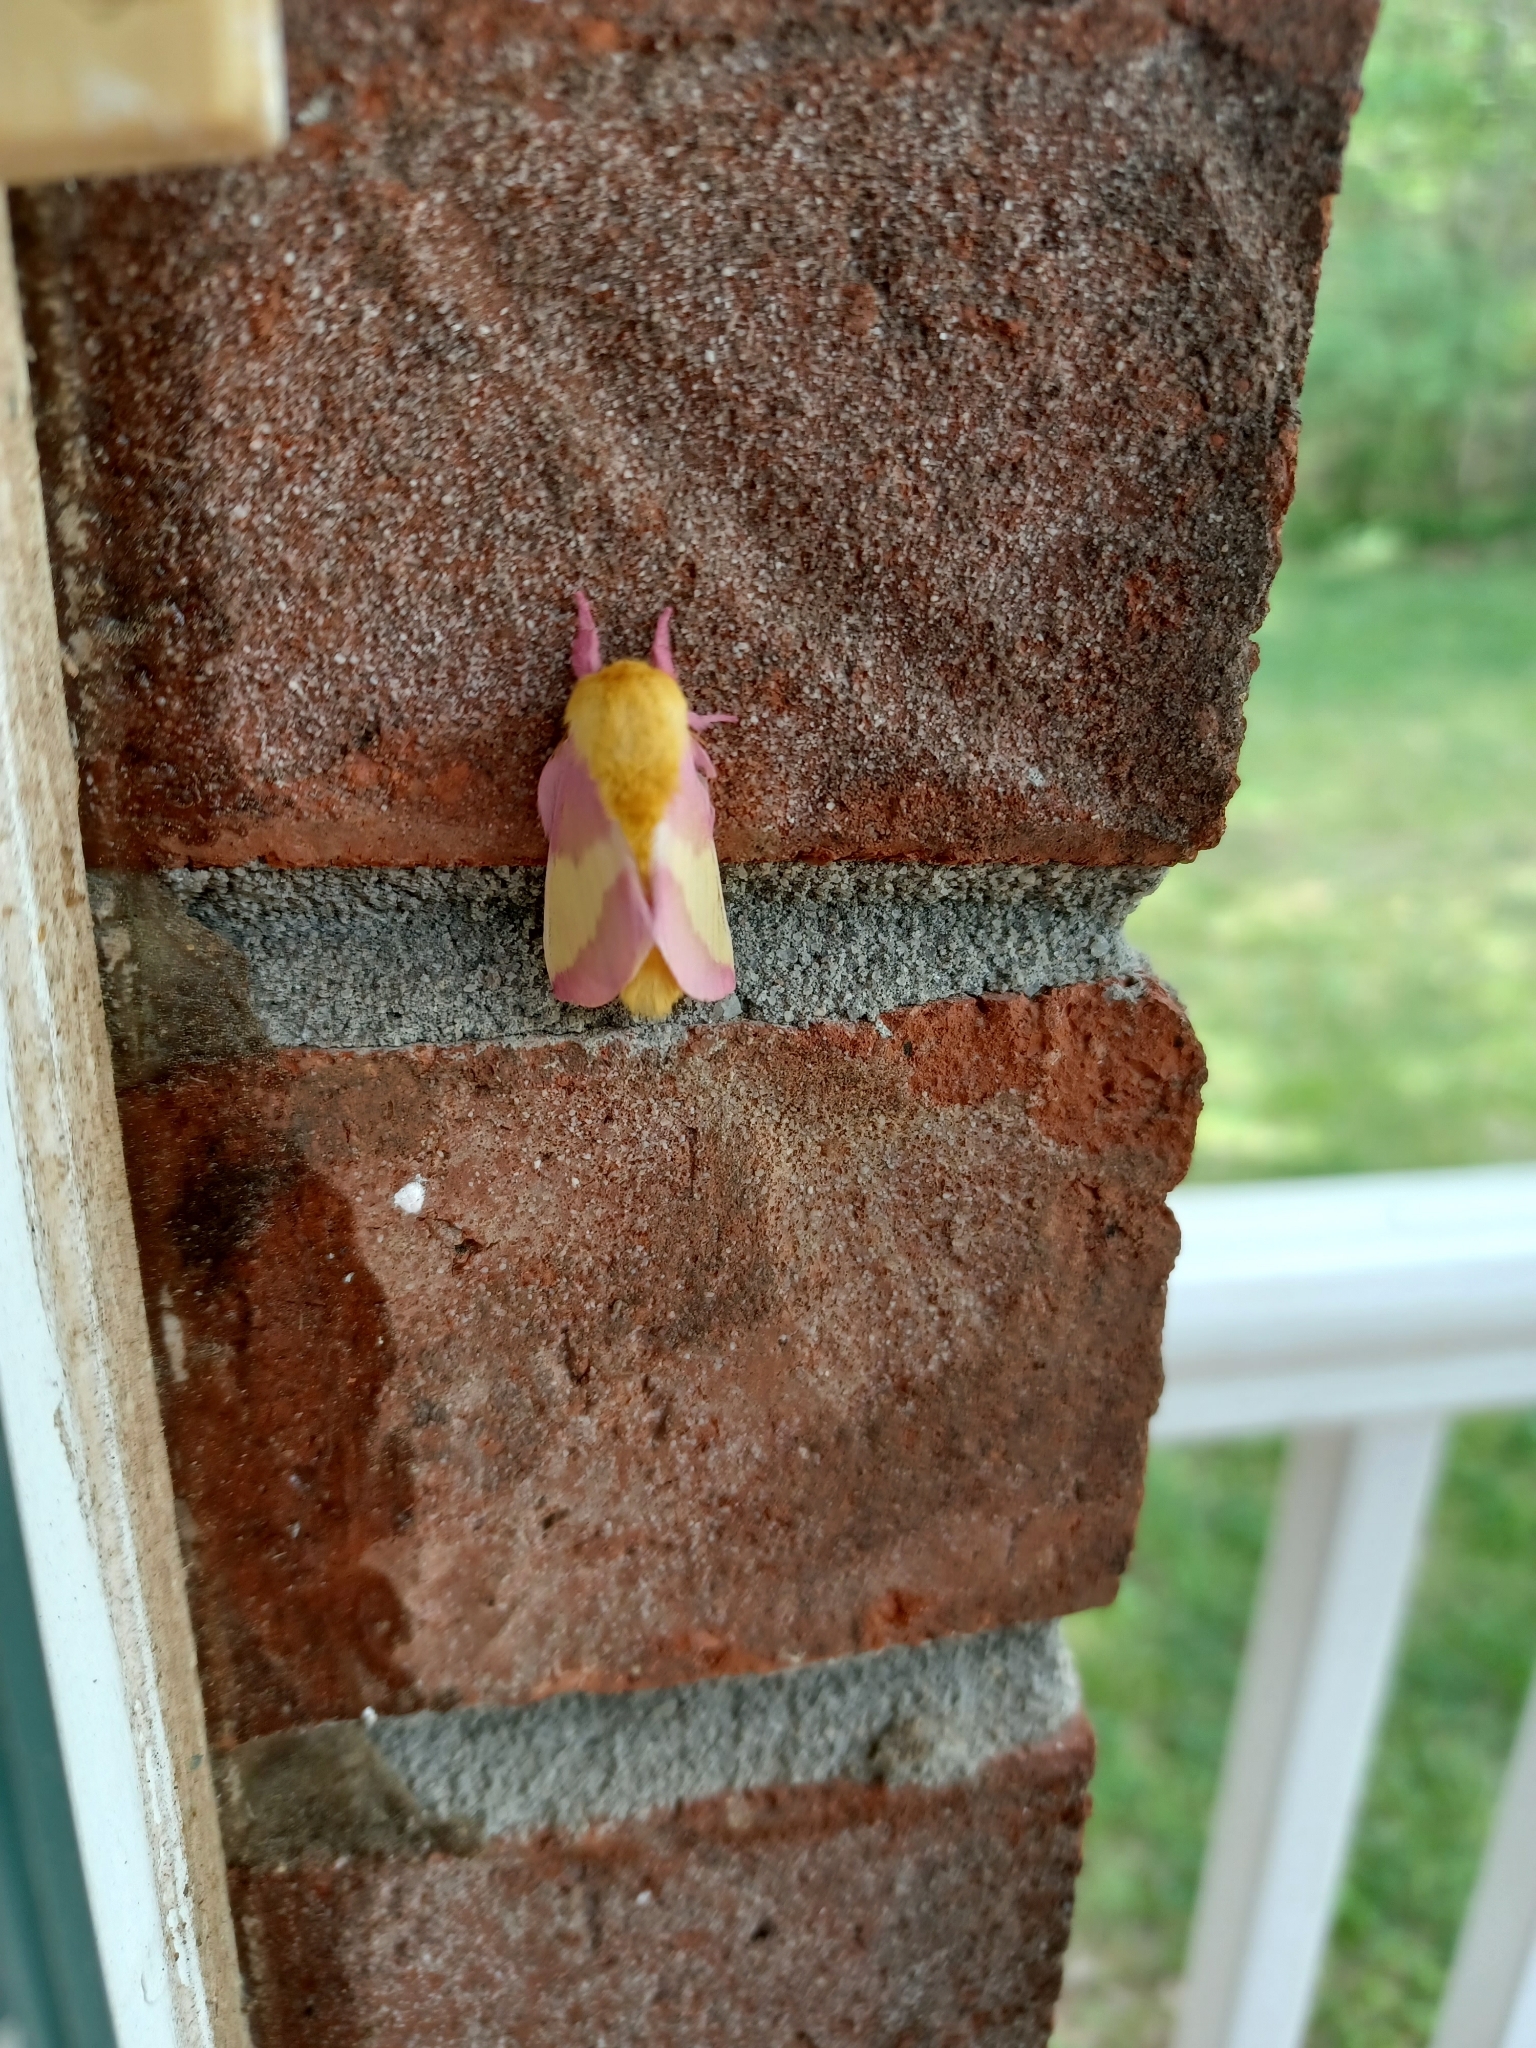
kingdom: Animalia
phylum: Arthropoda
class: Insecta
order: Lepidoptera
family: Saturniidae
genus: Dryocampa
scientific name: Dryocampa rubicunda
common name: Rosy maple moth
